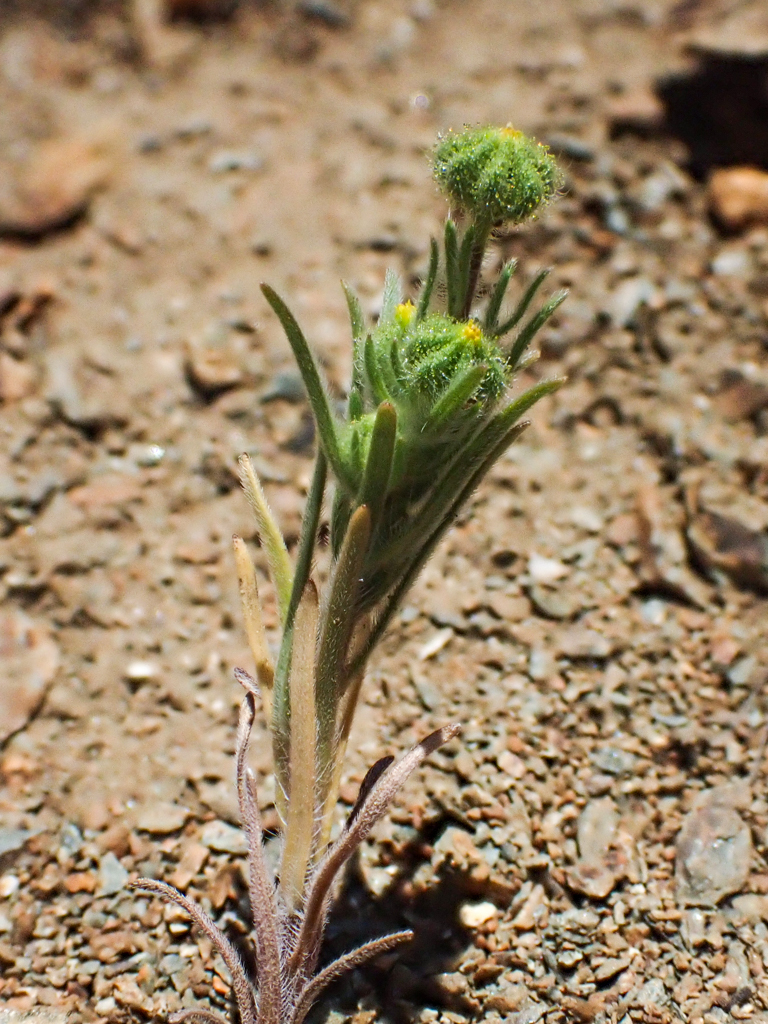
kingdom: Plantae
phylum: Tracheophyta
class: Magnoliopsida
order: Asterales
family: Asteraceae
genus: Madia
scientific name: Madia exigua
